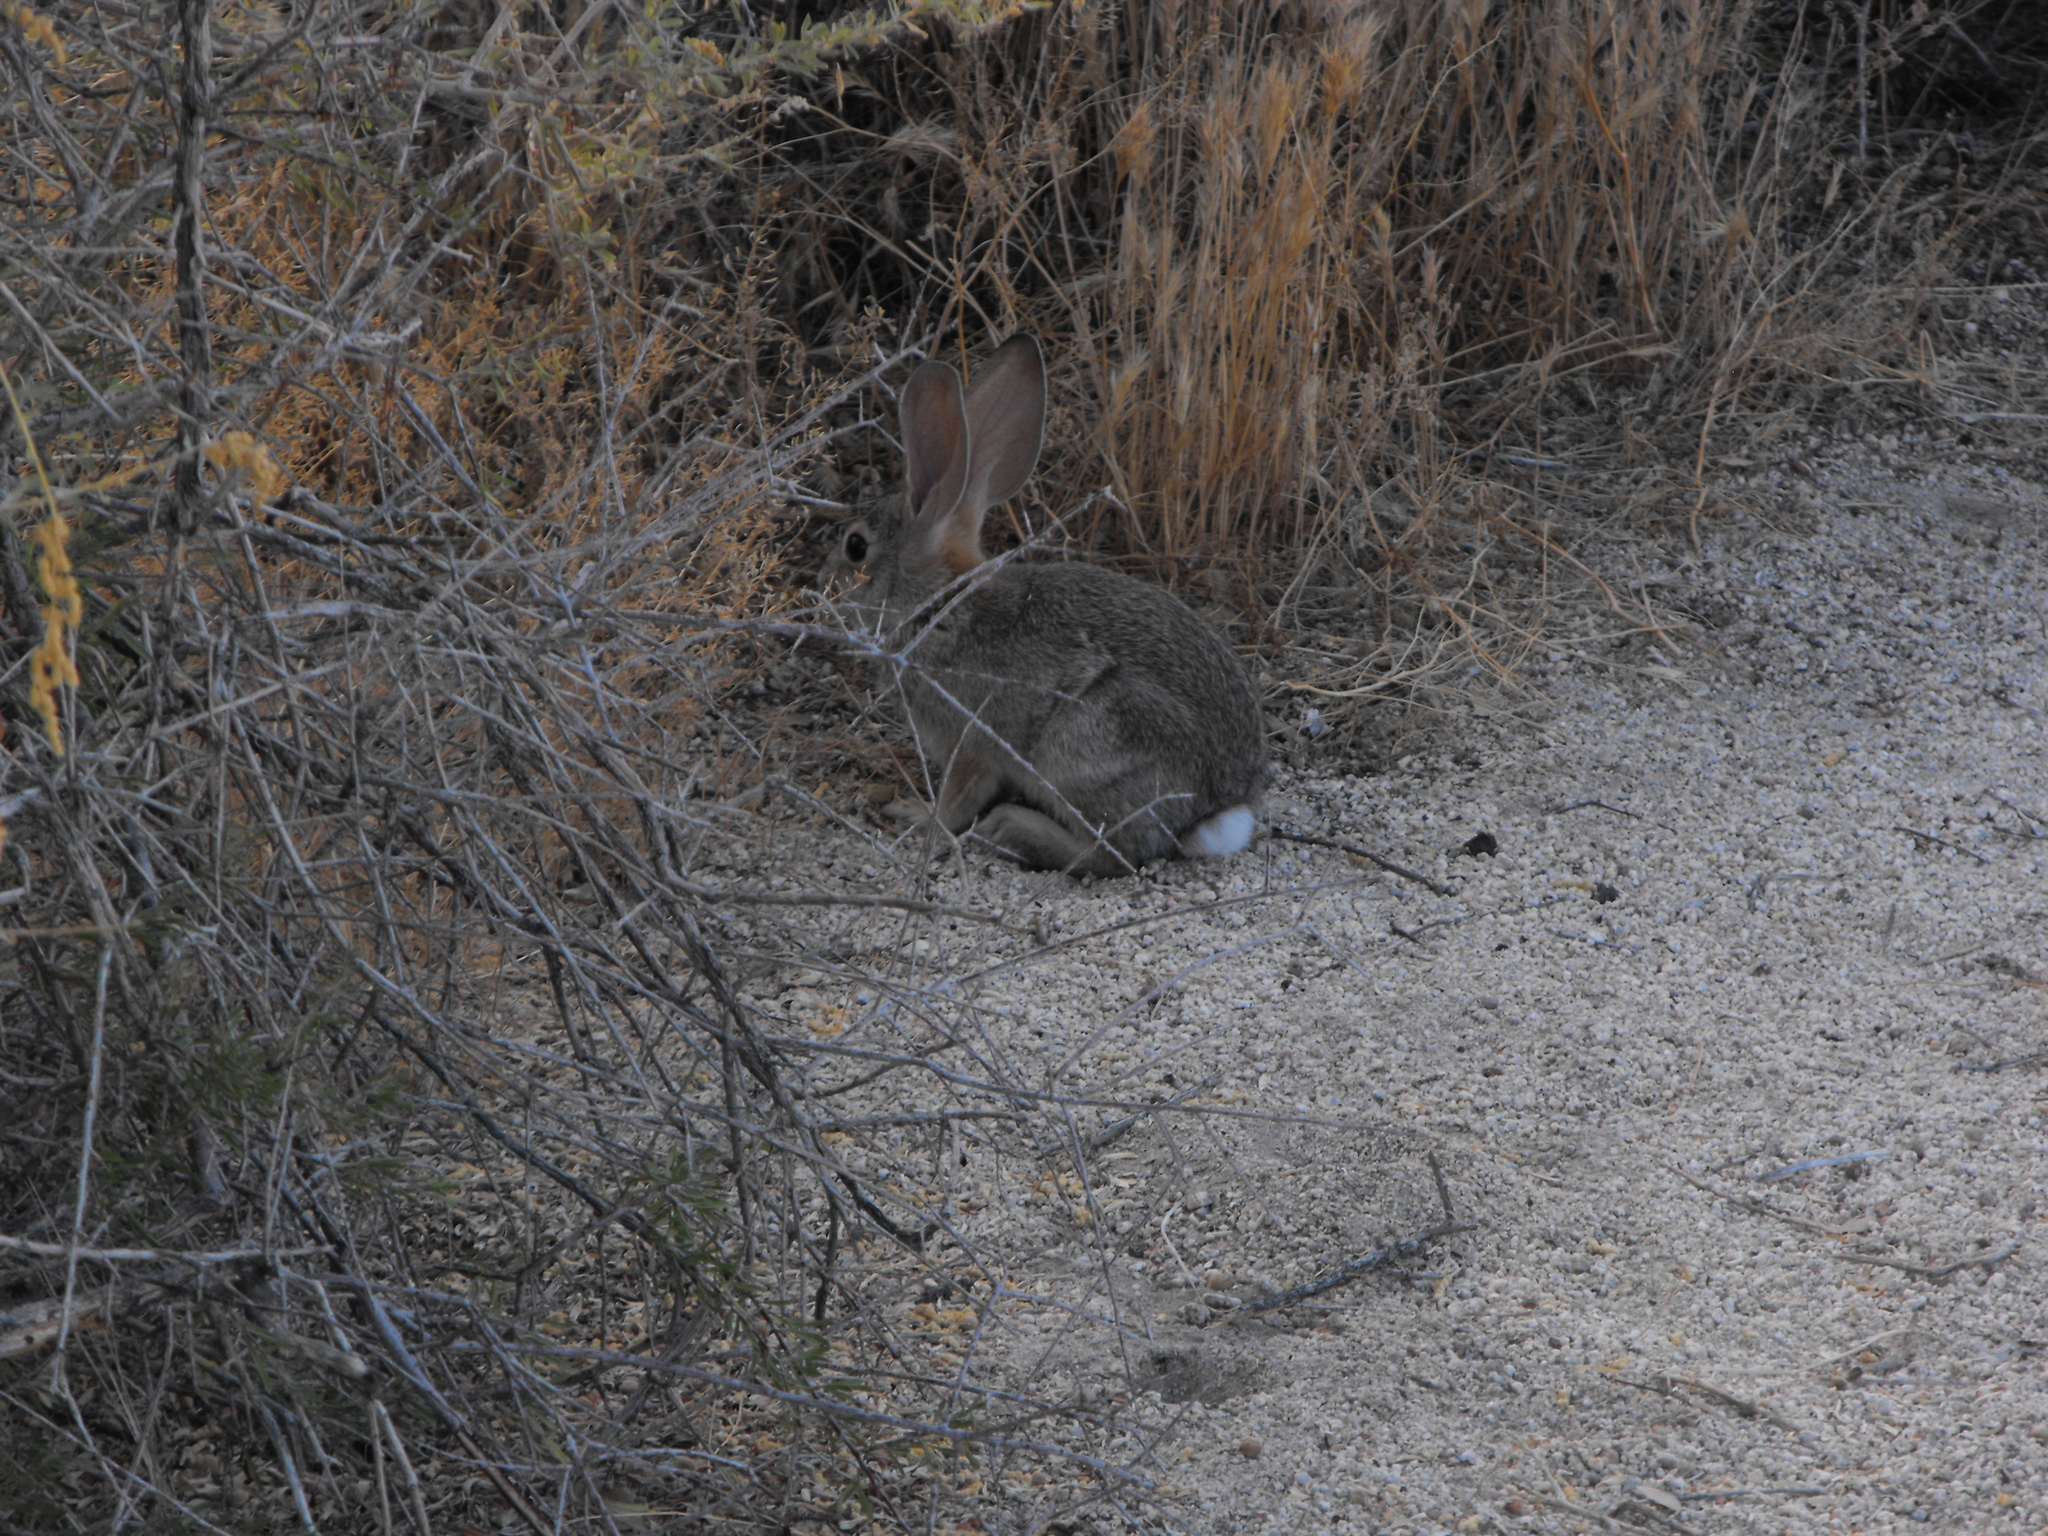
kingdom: Animalia
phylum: Chordata
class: Mammalia
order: Lagomorpha
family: Leporidae
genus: Sylvilagus
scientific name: Sylvilagus audubonii
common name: Desert cottontail
